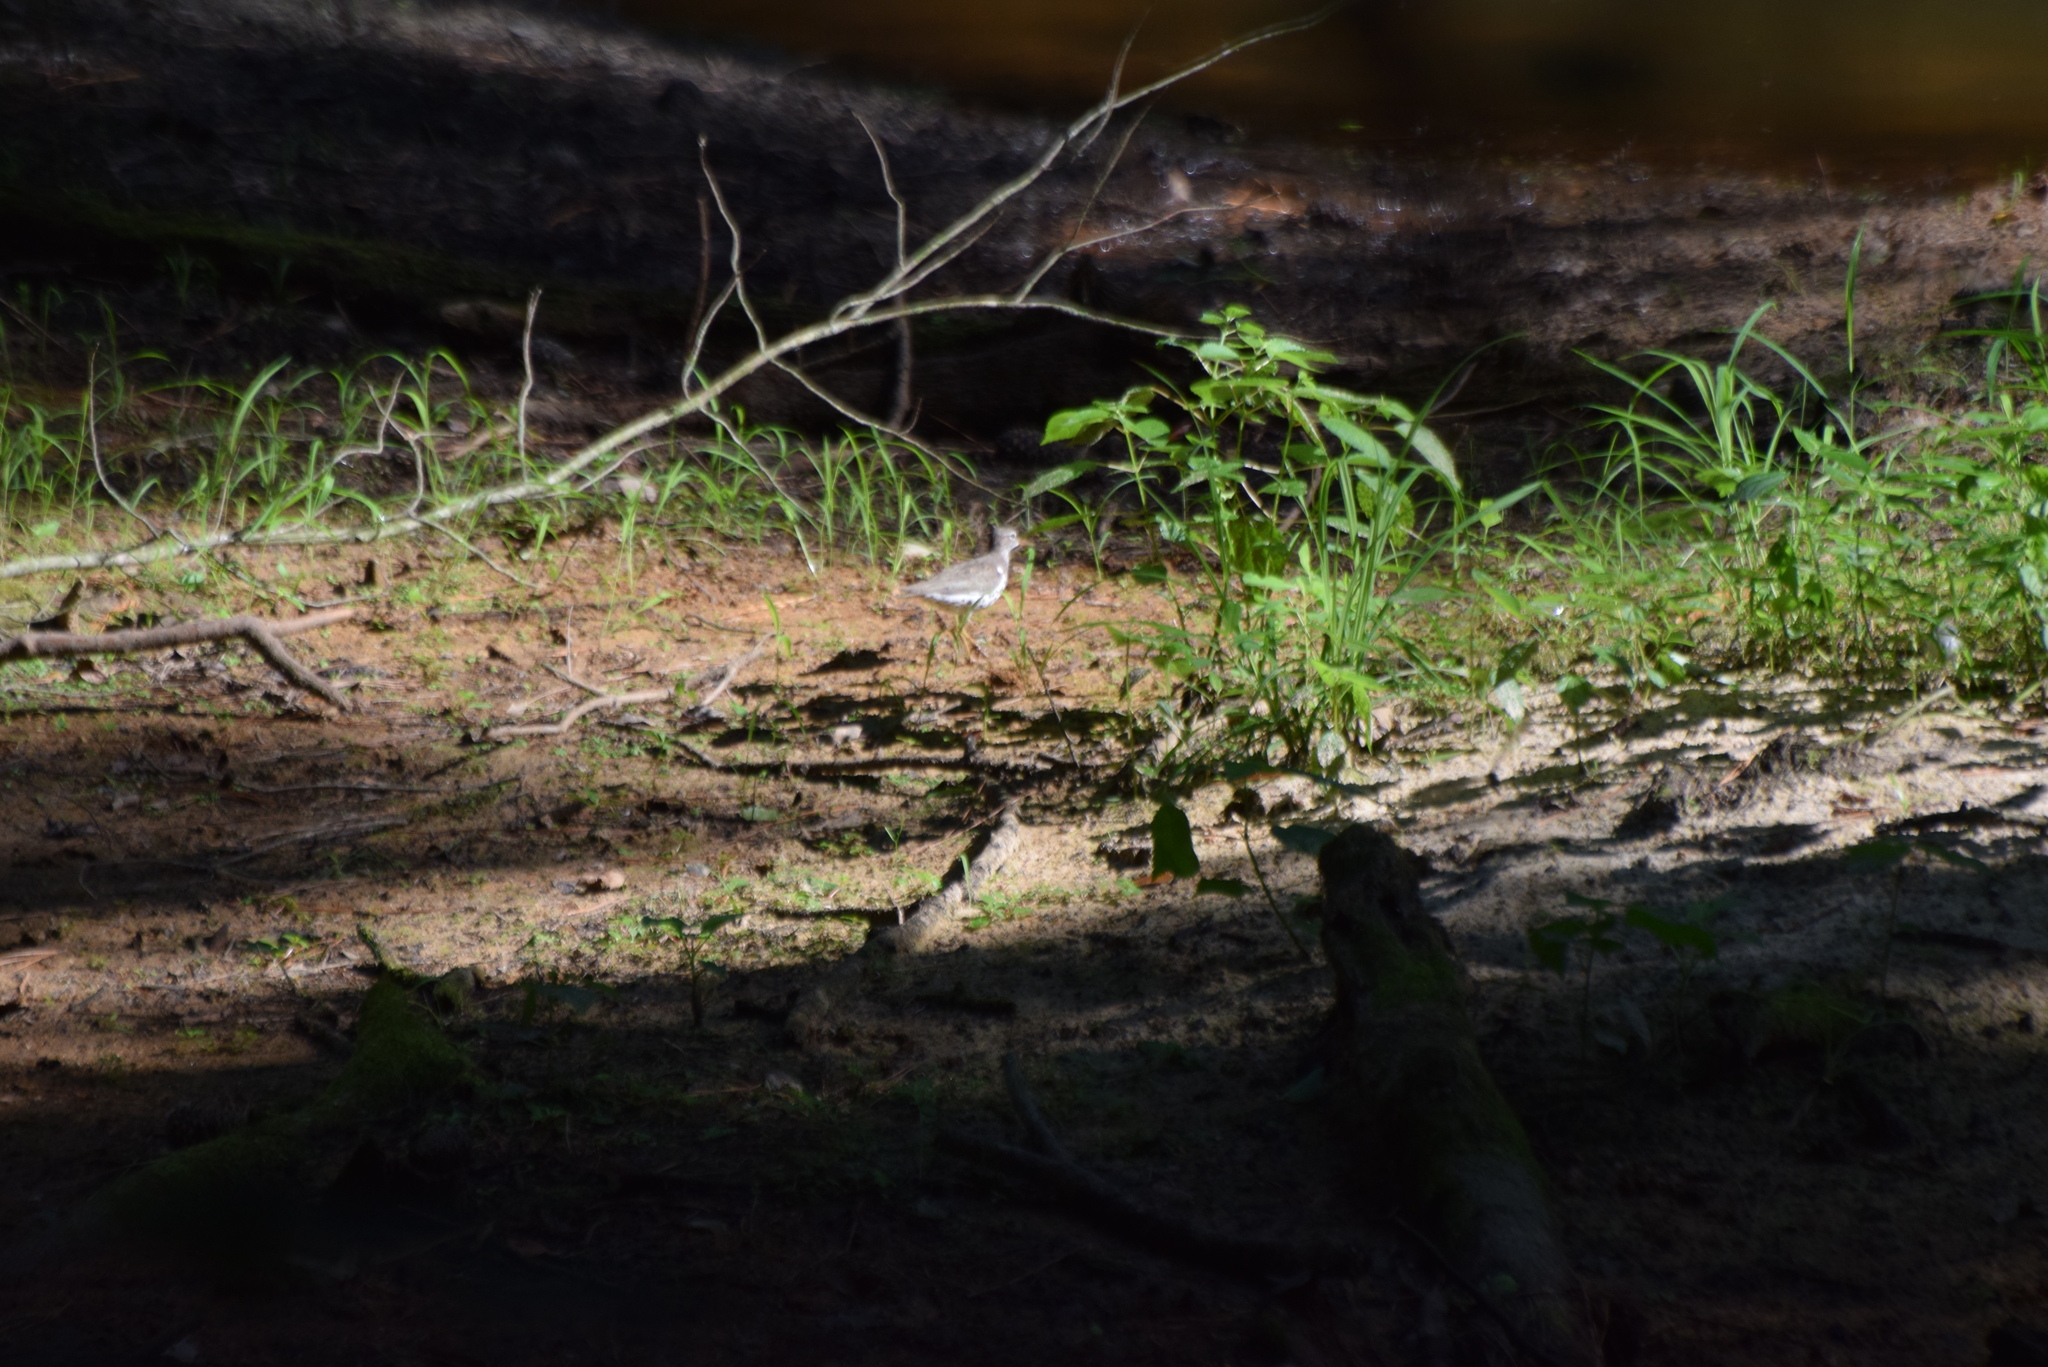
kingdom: Animalia
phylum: Chordata
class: Aves
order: Charadriiformes
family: Scolopacidae
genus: Actitis
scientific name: Actitis macularius
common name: Spotted sandpiper
